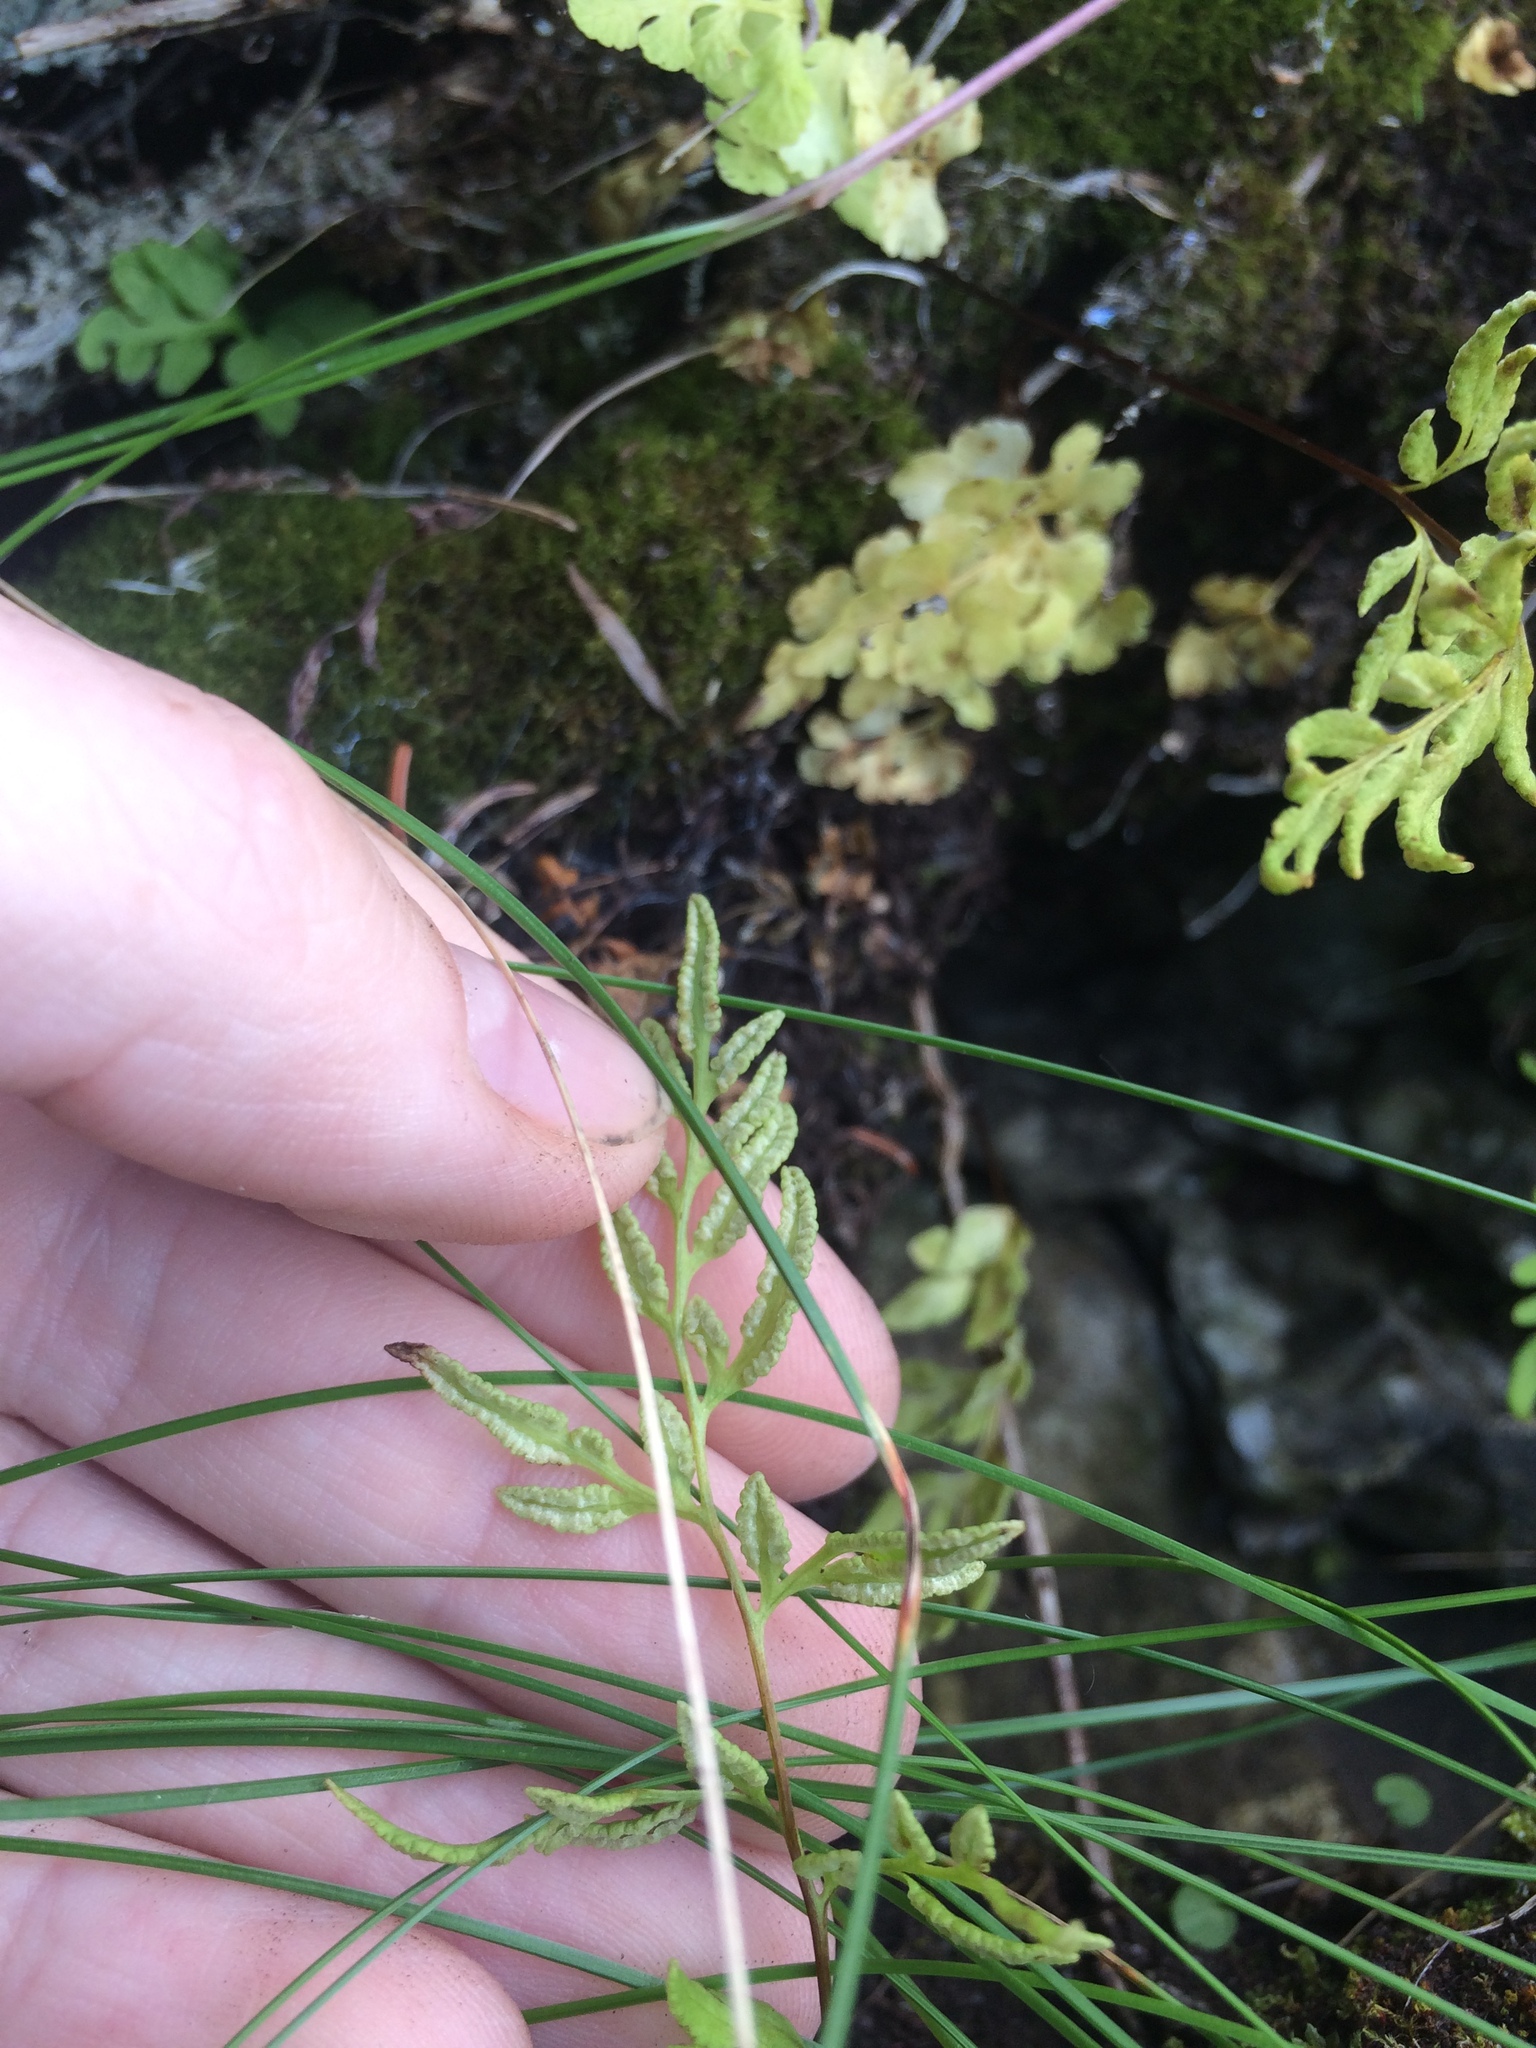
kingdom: Plantae
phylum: Tracheophyta
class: Polypodiopsida
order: Polypodiales
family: Pteridaceae
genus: Cryptogramma
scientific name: Cryptogramma stelleri
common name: Cliff-brake
